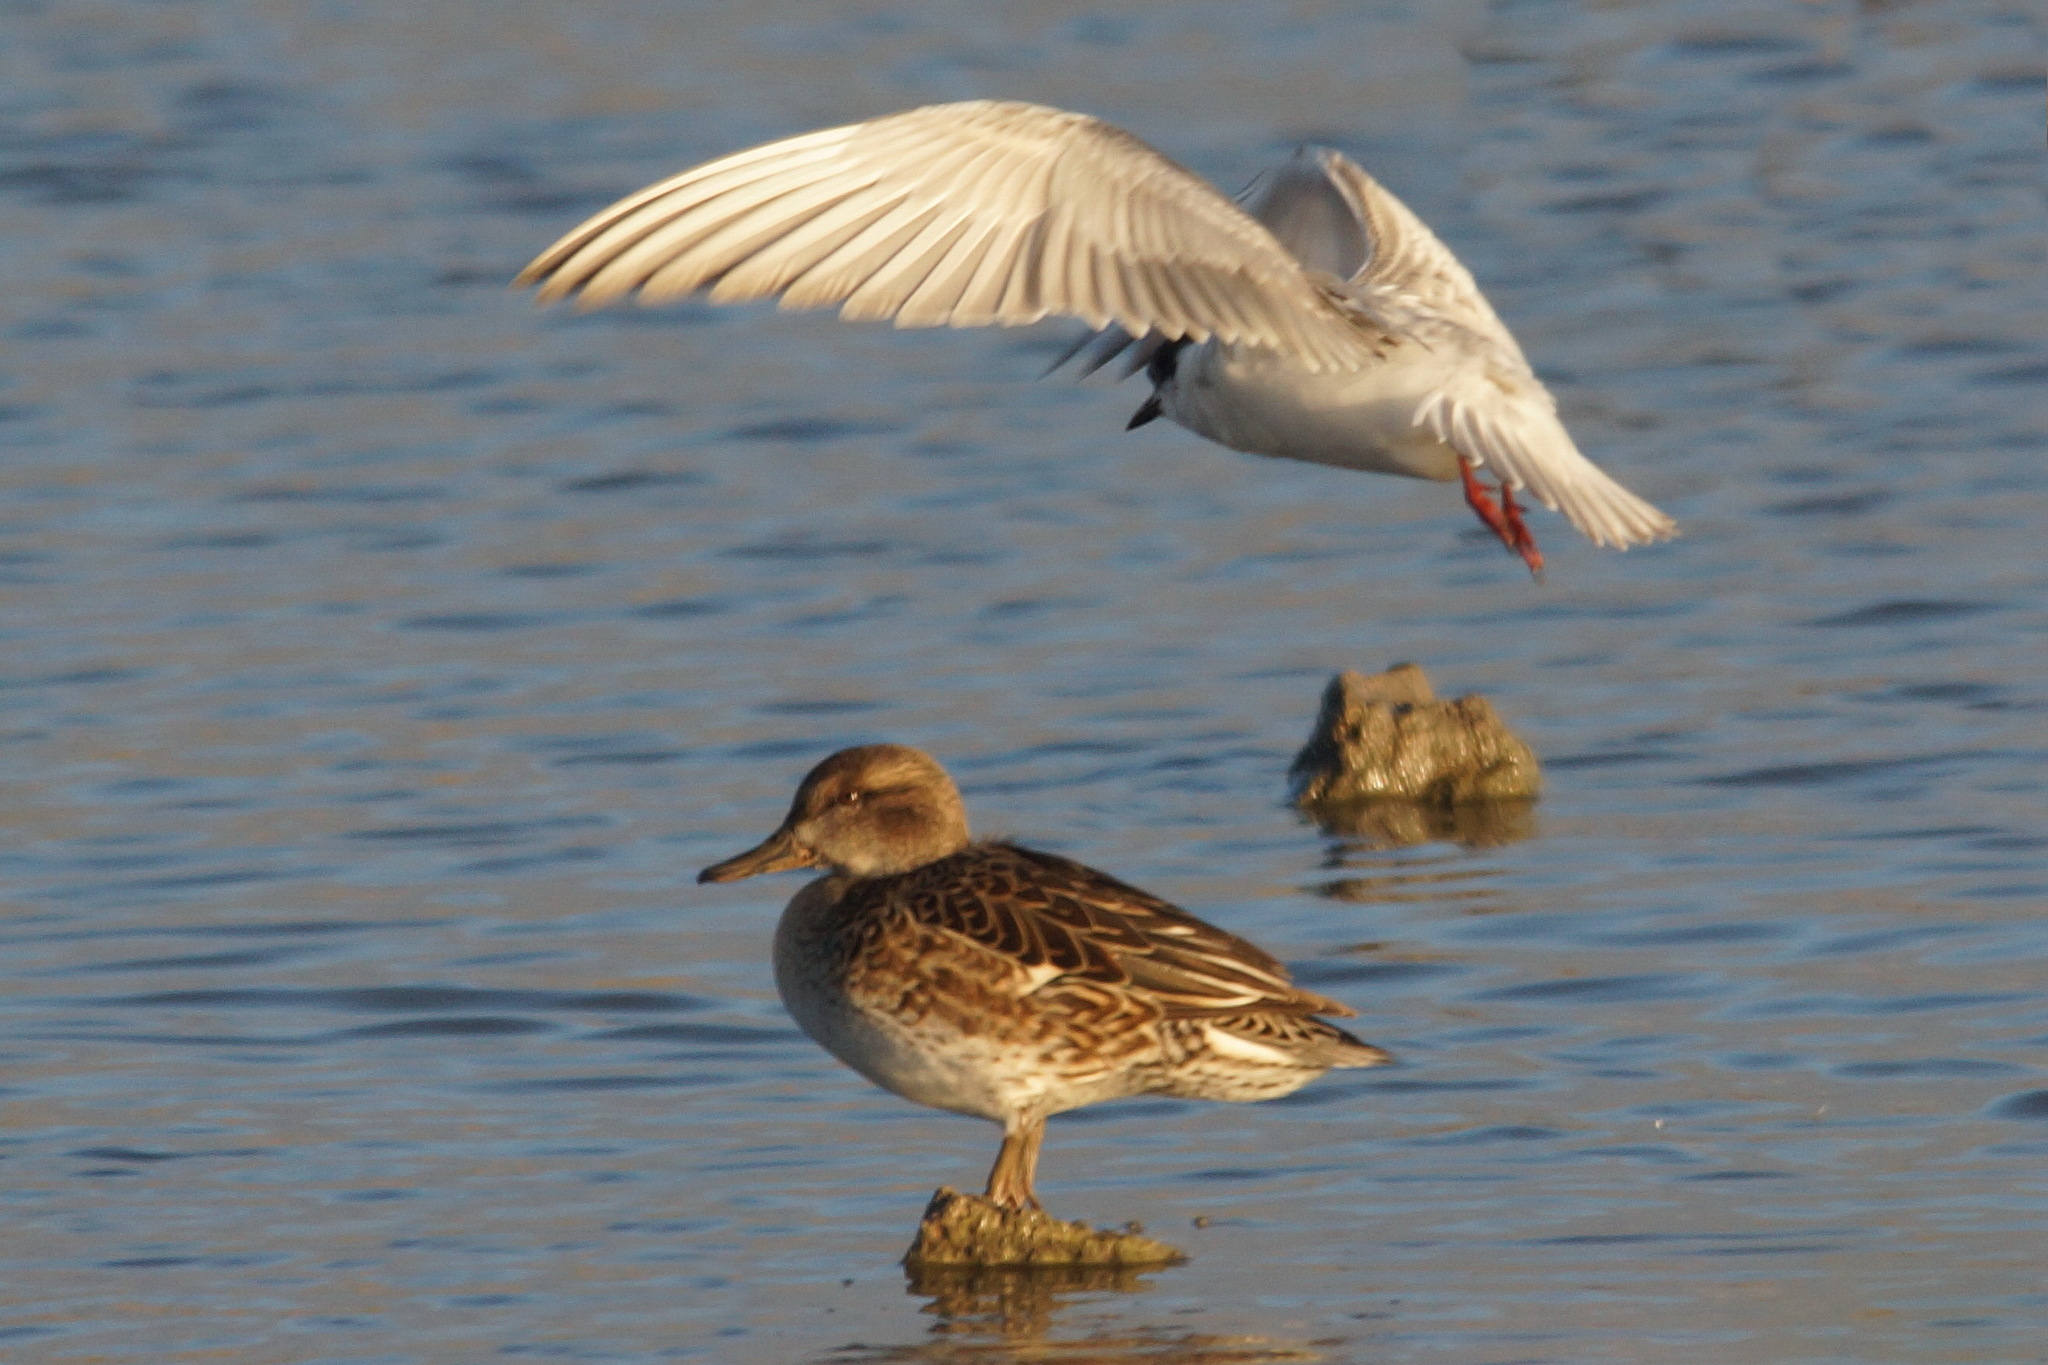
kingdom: Animalia
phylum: Chordata
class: Aves
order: Anseriformes
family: Anatidae
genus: Anas
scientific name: Anas crecca
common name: Eurasian teal
